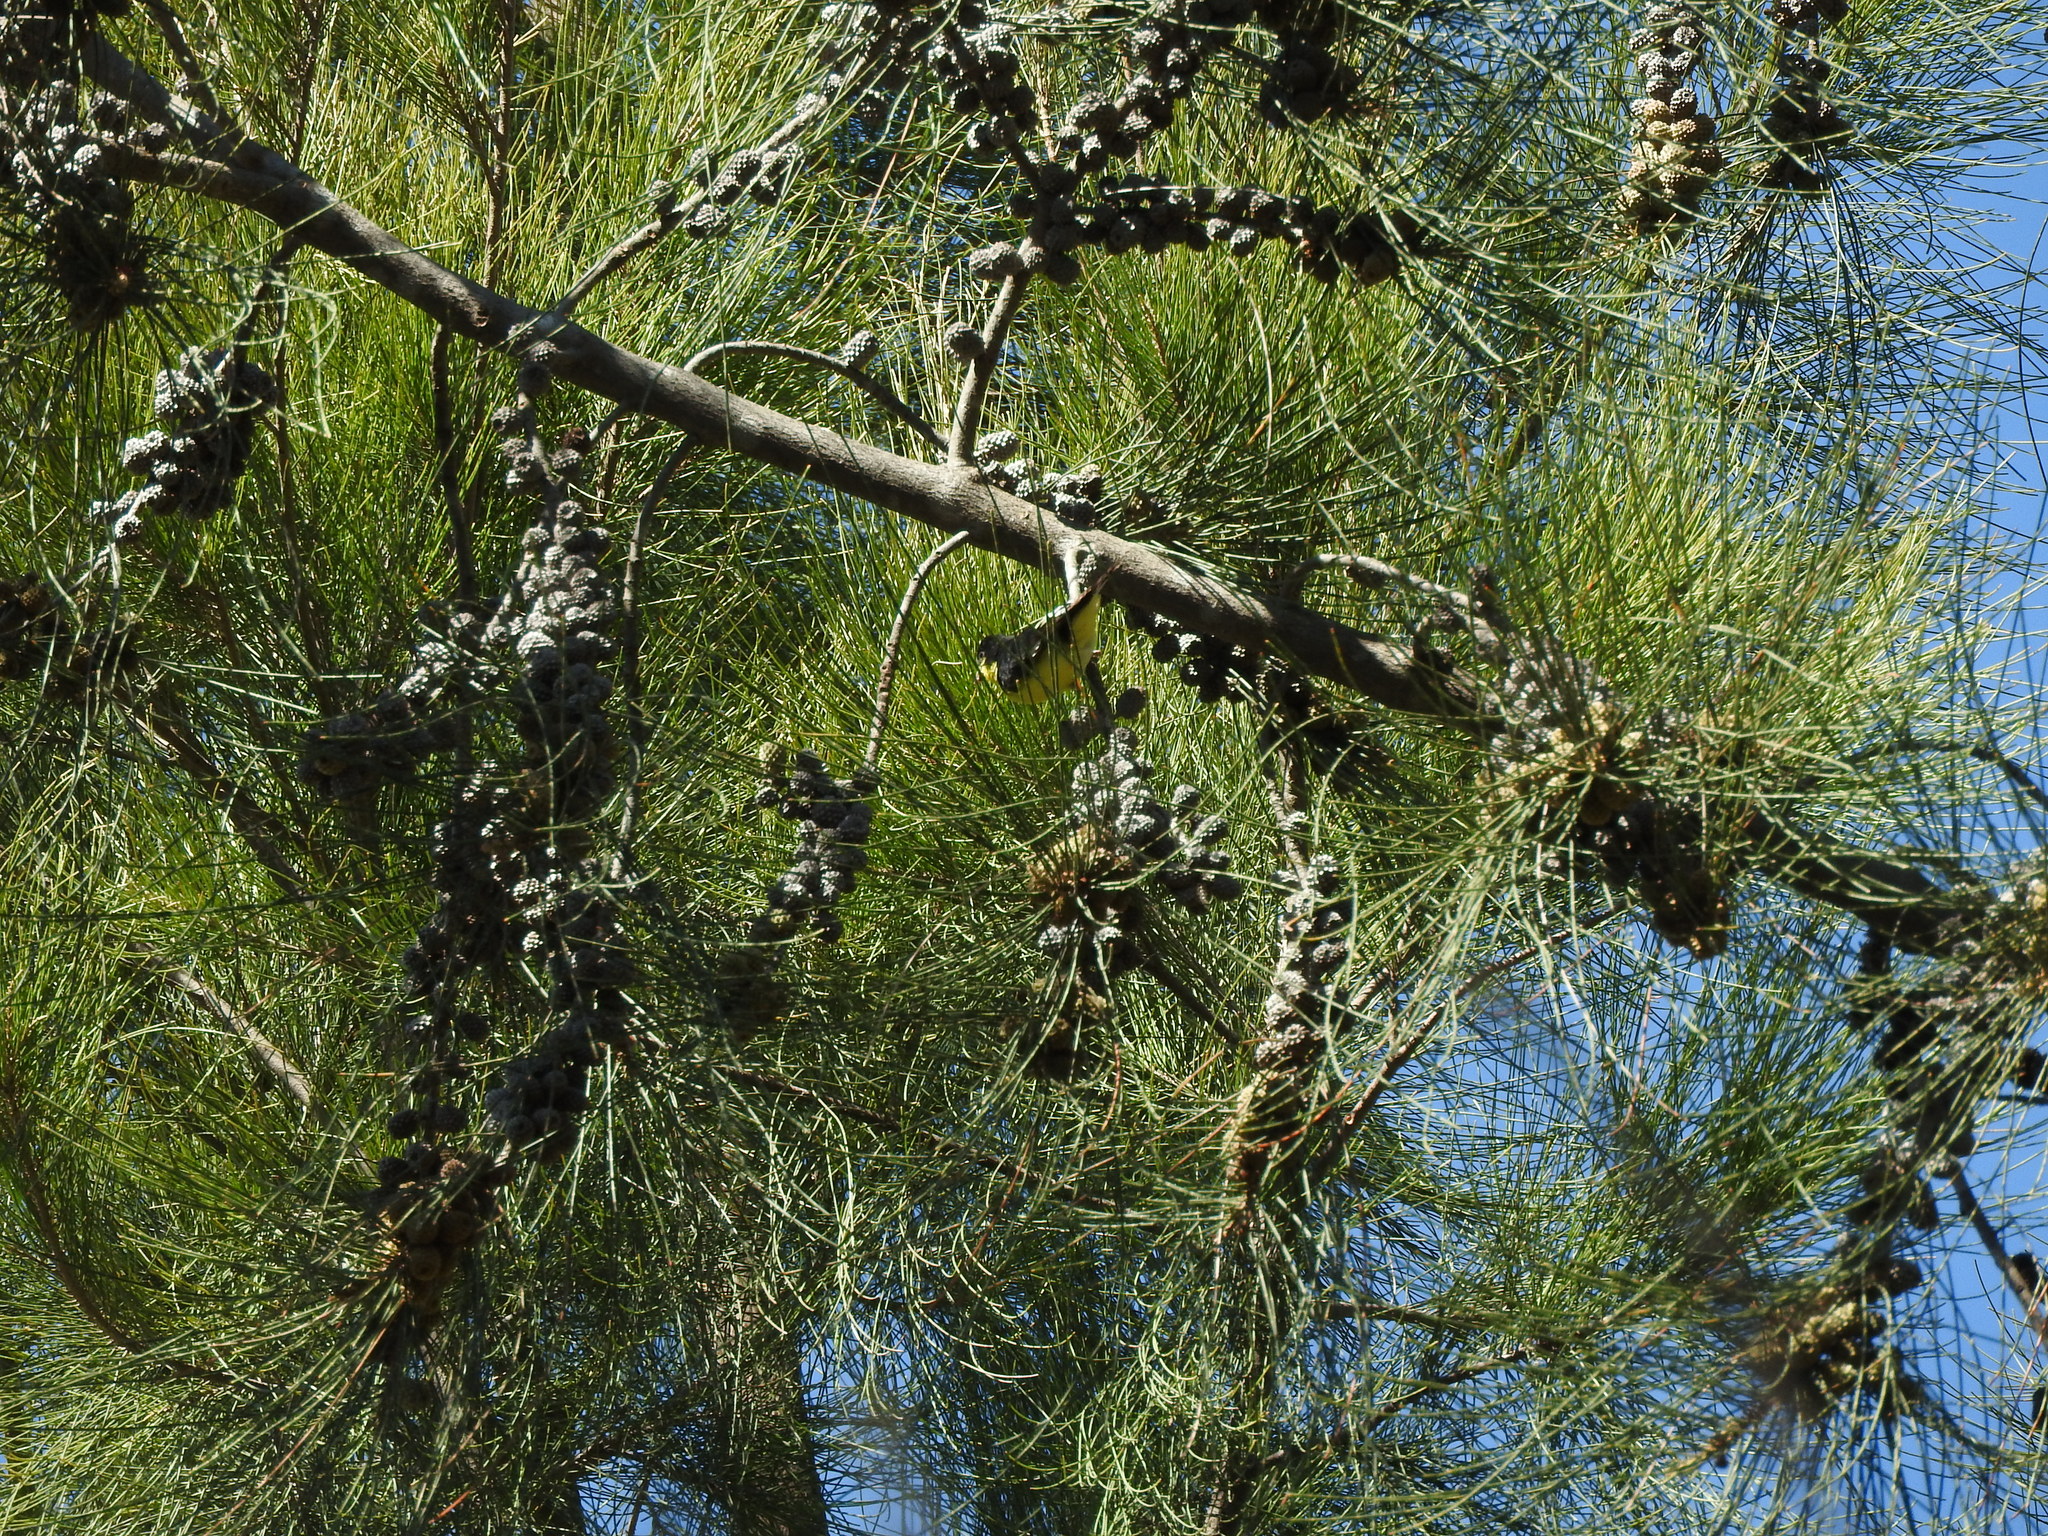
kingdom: Animalia
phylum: Chordata
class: Aves
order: Passeriformes
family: Fringillidae
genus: Spinus
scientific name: Spinus psaltria
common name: Lesser goldfinch
